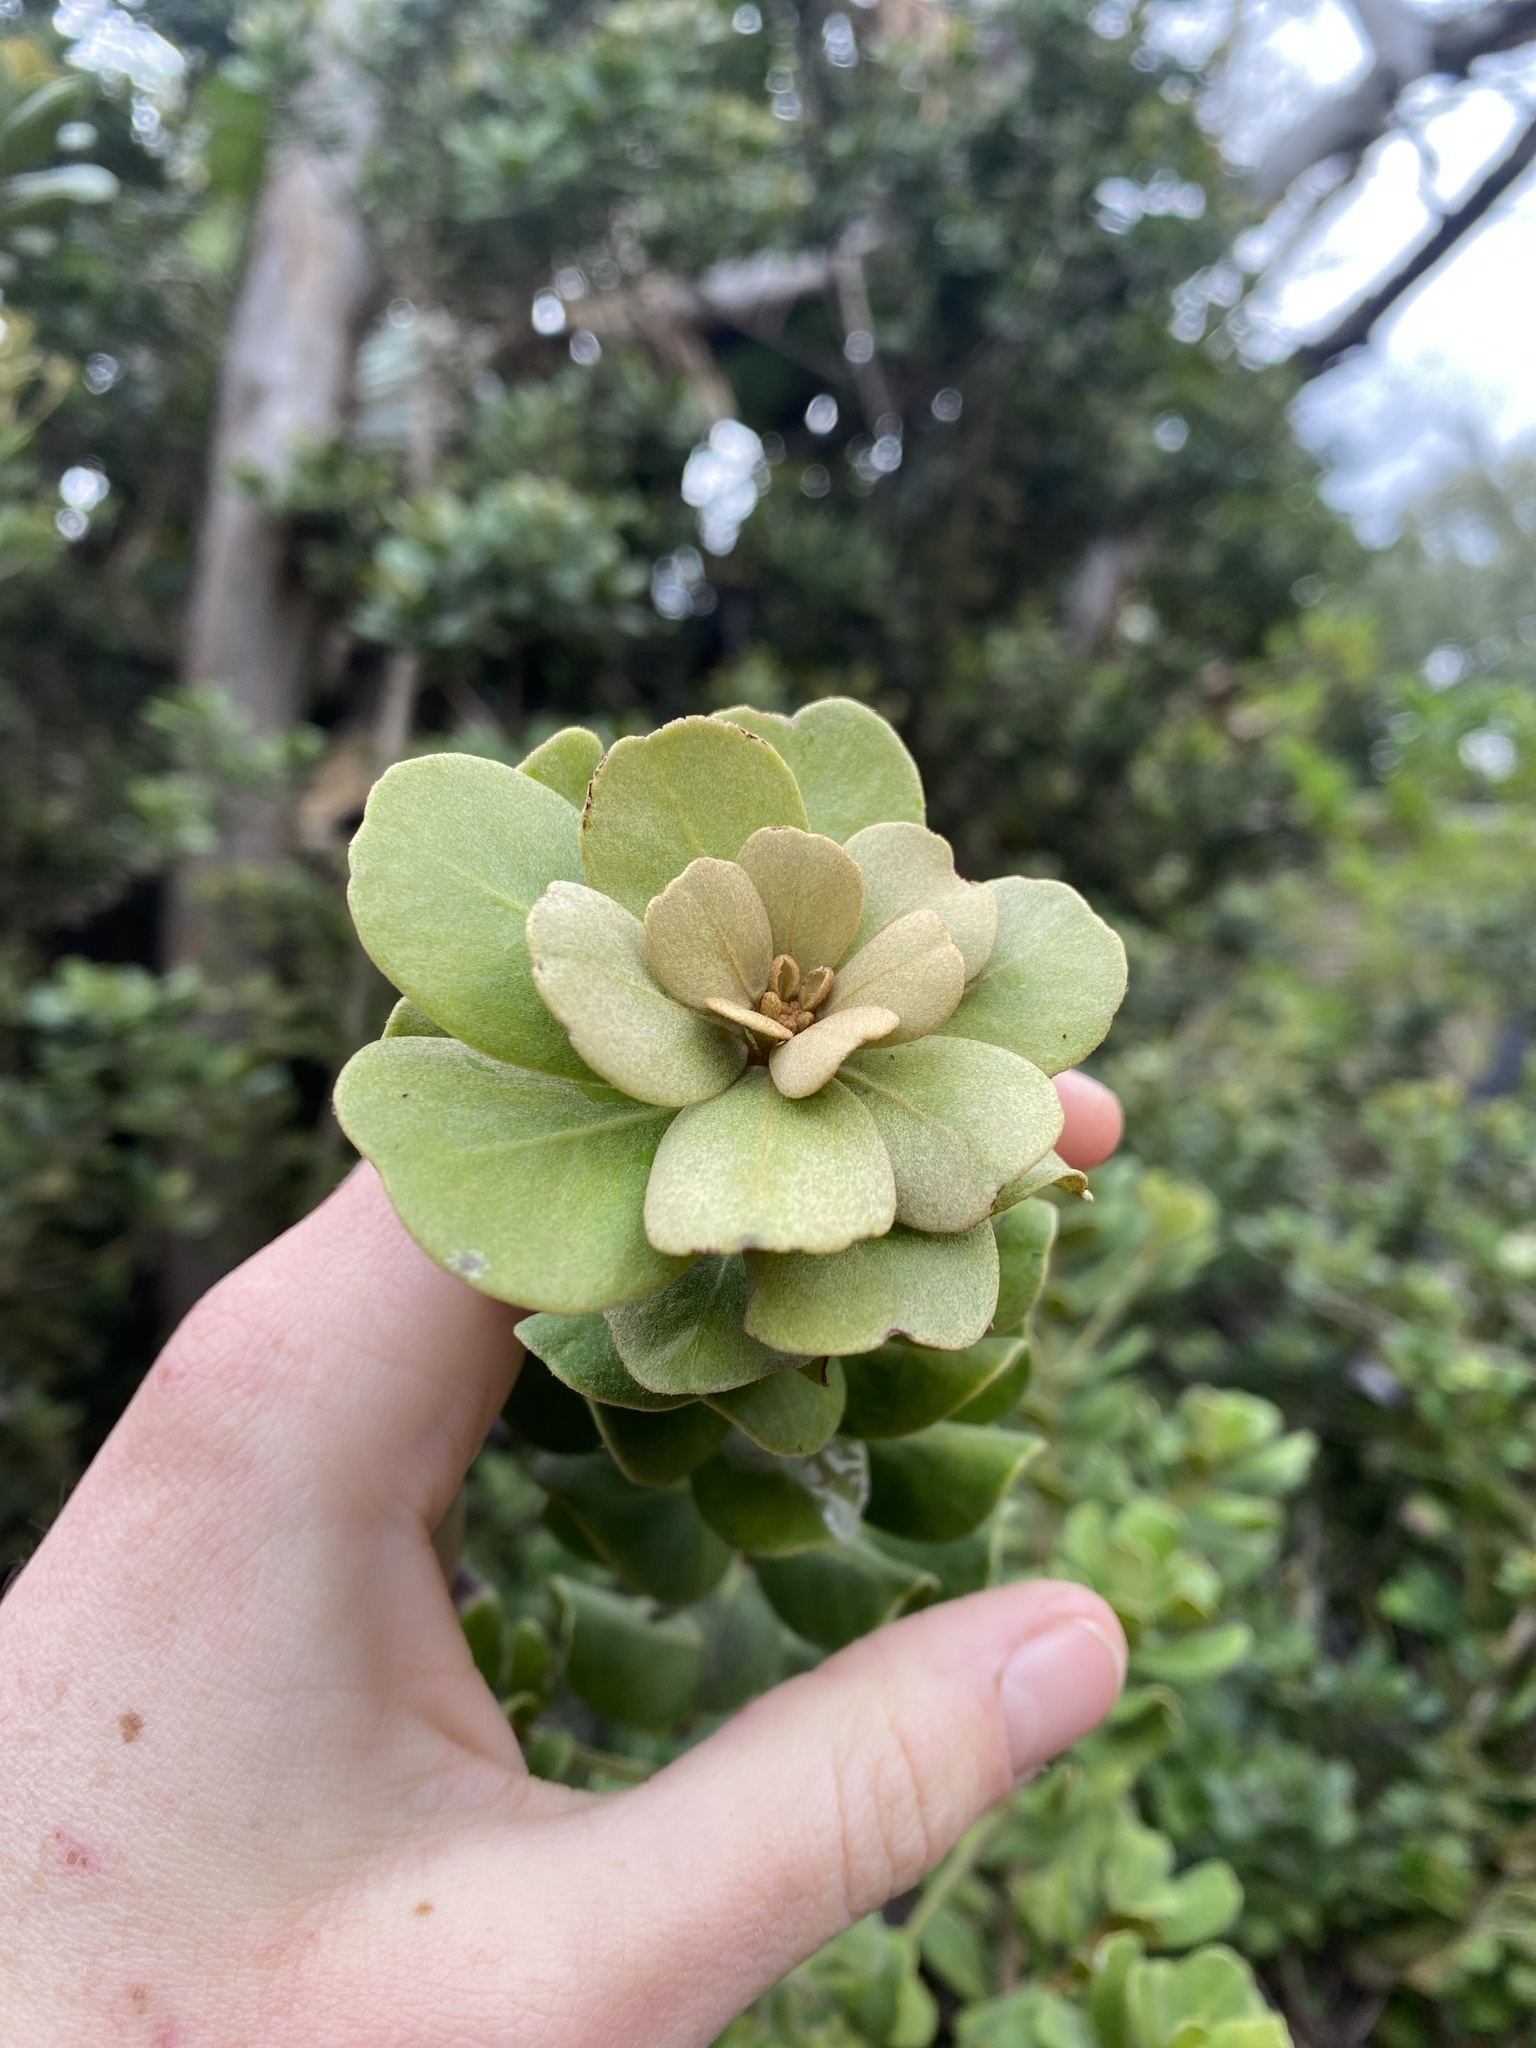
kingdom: Plantae
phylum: Tracheophyta
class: Magnoliopsida
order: Ericales
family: Sapotaceae
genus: Mimusops
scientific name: Mimusops caffra
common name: Coastal red milkwood
